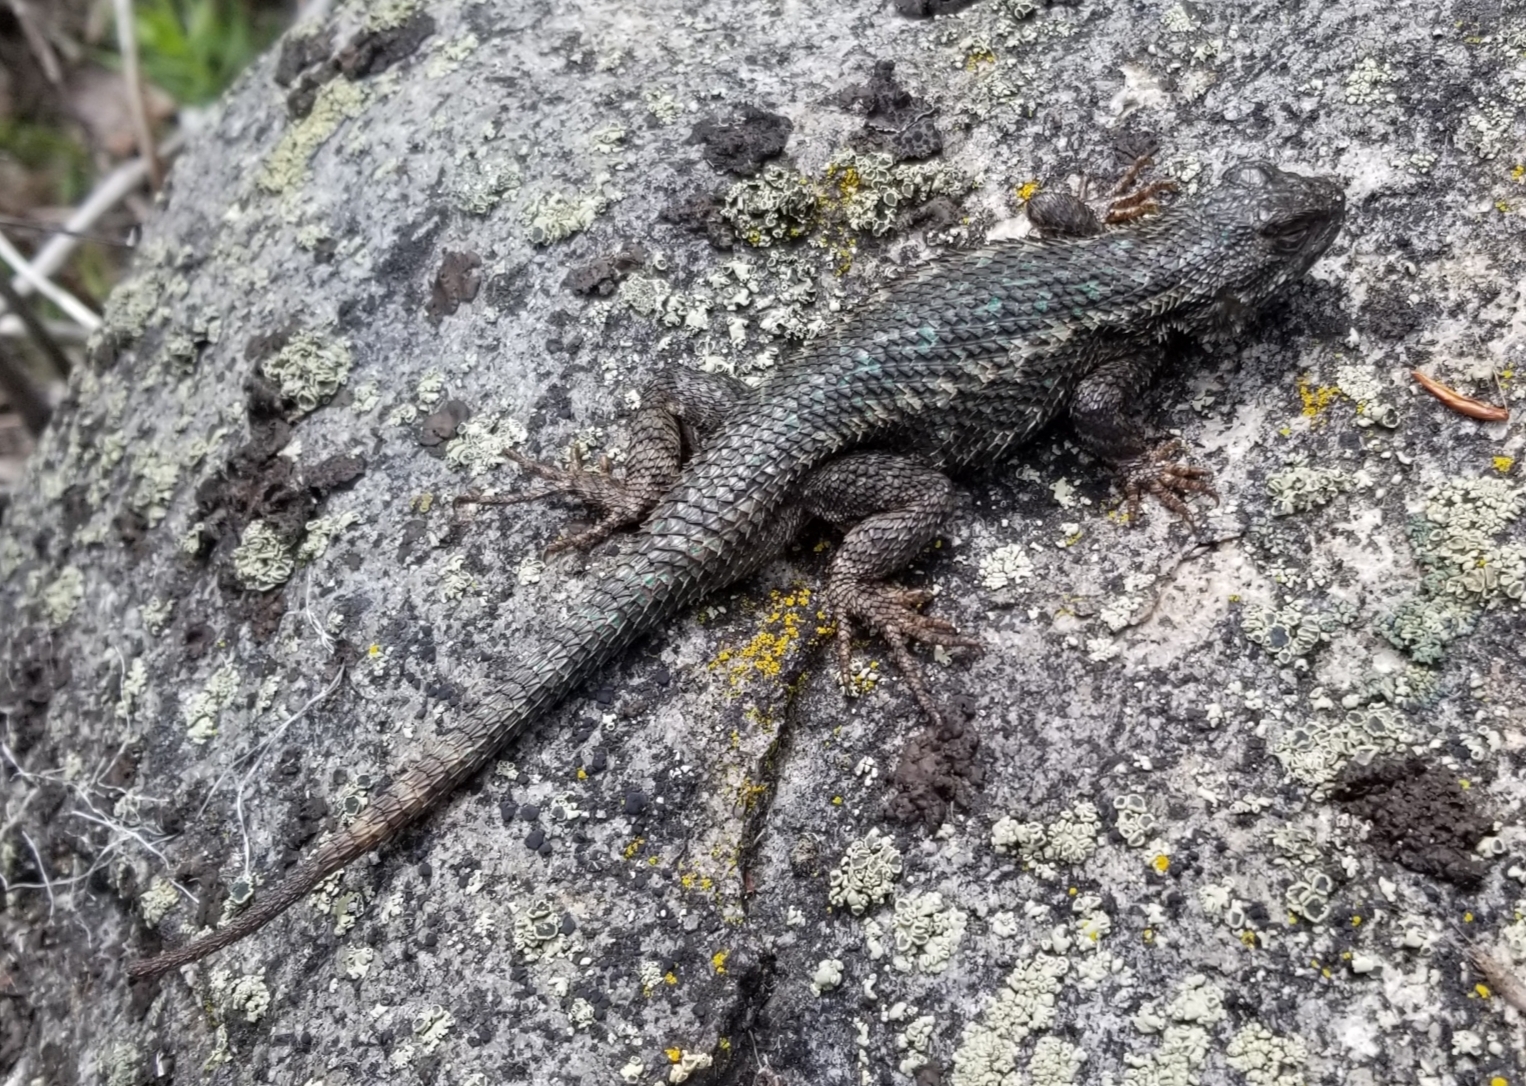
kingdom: Animalia
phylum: Chordata
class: Squamata
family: Phrynosomatidae
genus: Sceloporus
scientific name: Sceloporus occidentalis
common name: Western fence lizard
